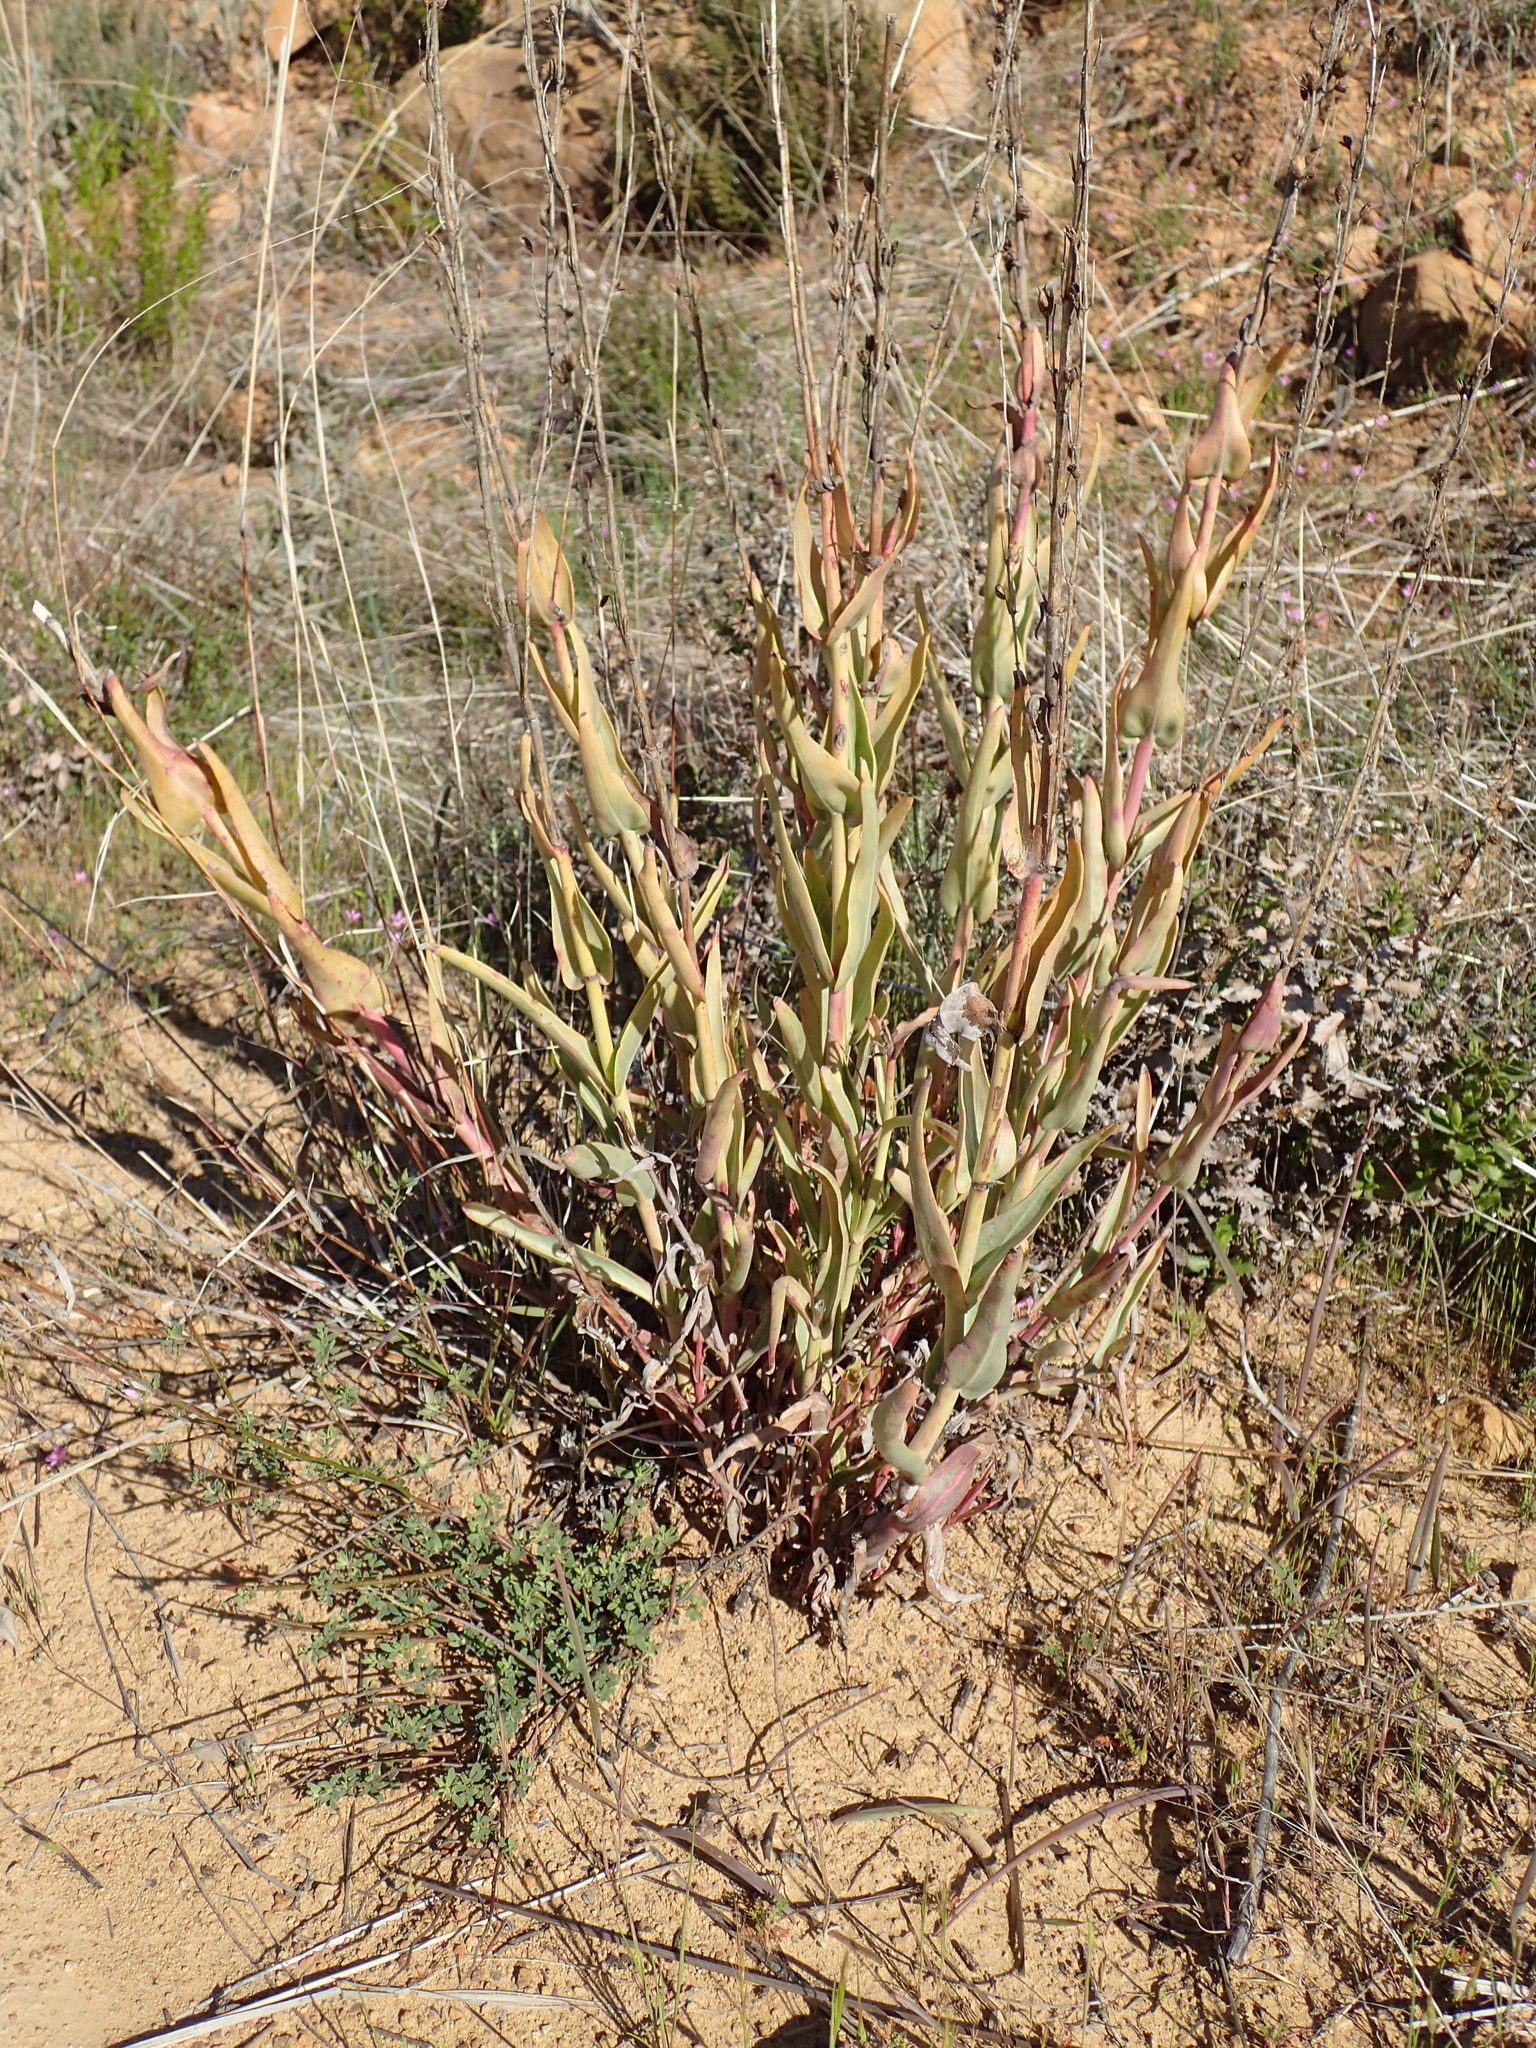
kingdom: Plantae
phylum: Tracheophyta
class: Magnoliopsida
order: Lamiales
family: Plantaginaceae
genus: Penstemon
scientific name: Penstemon centranthifolius
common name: Scarlet bugler
